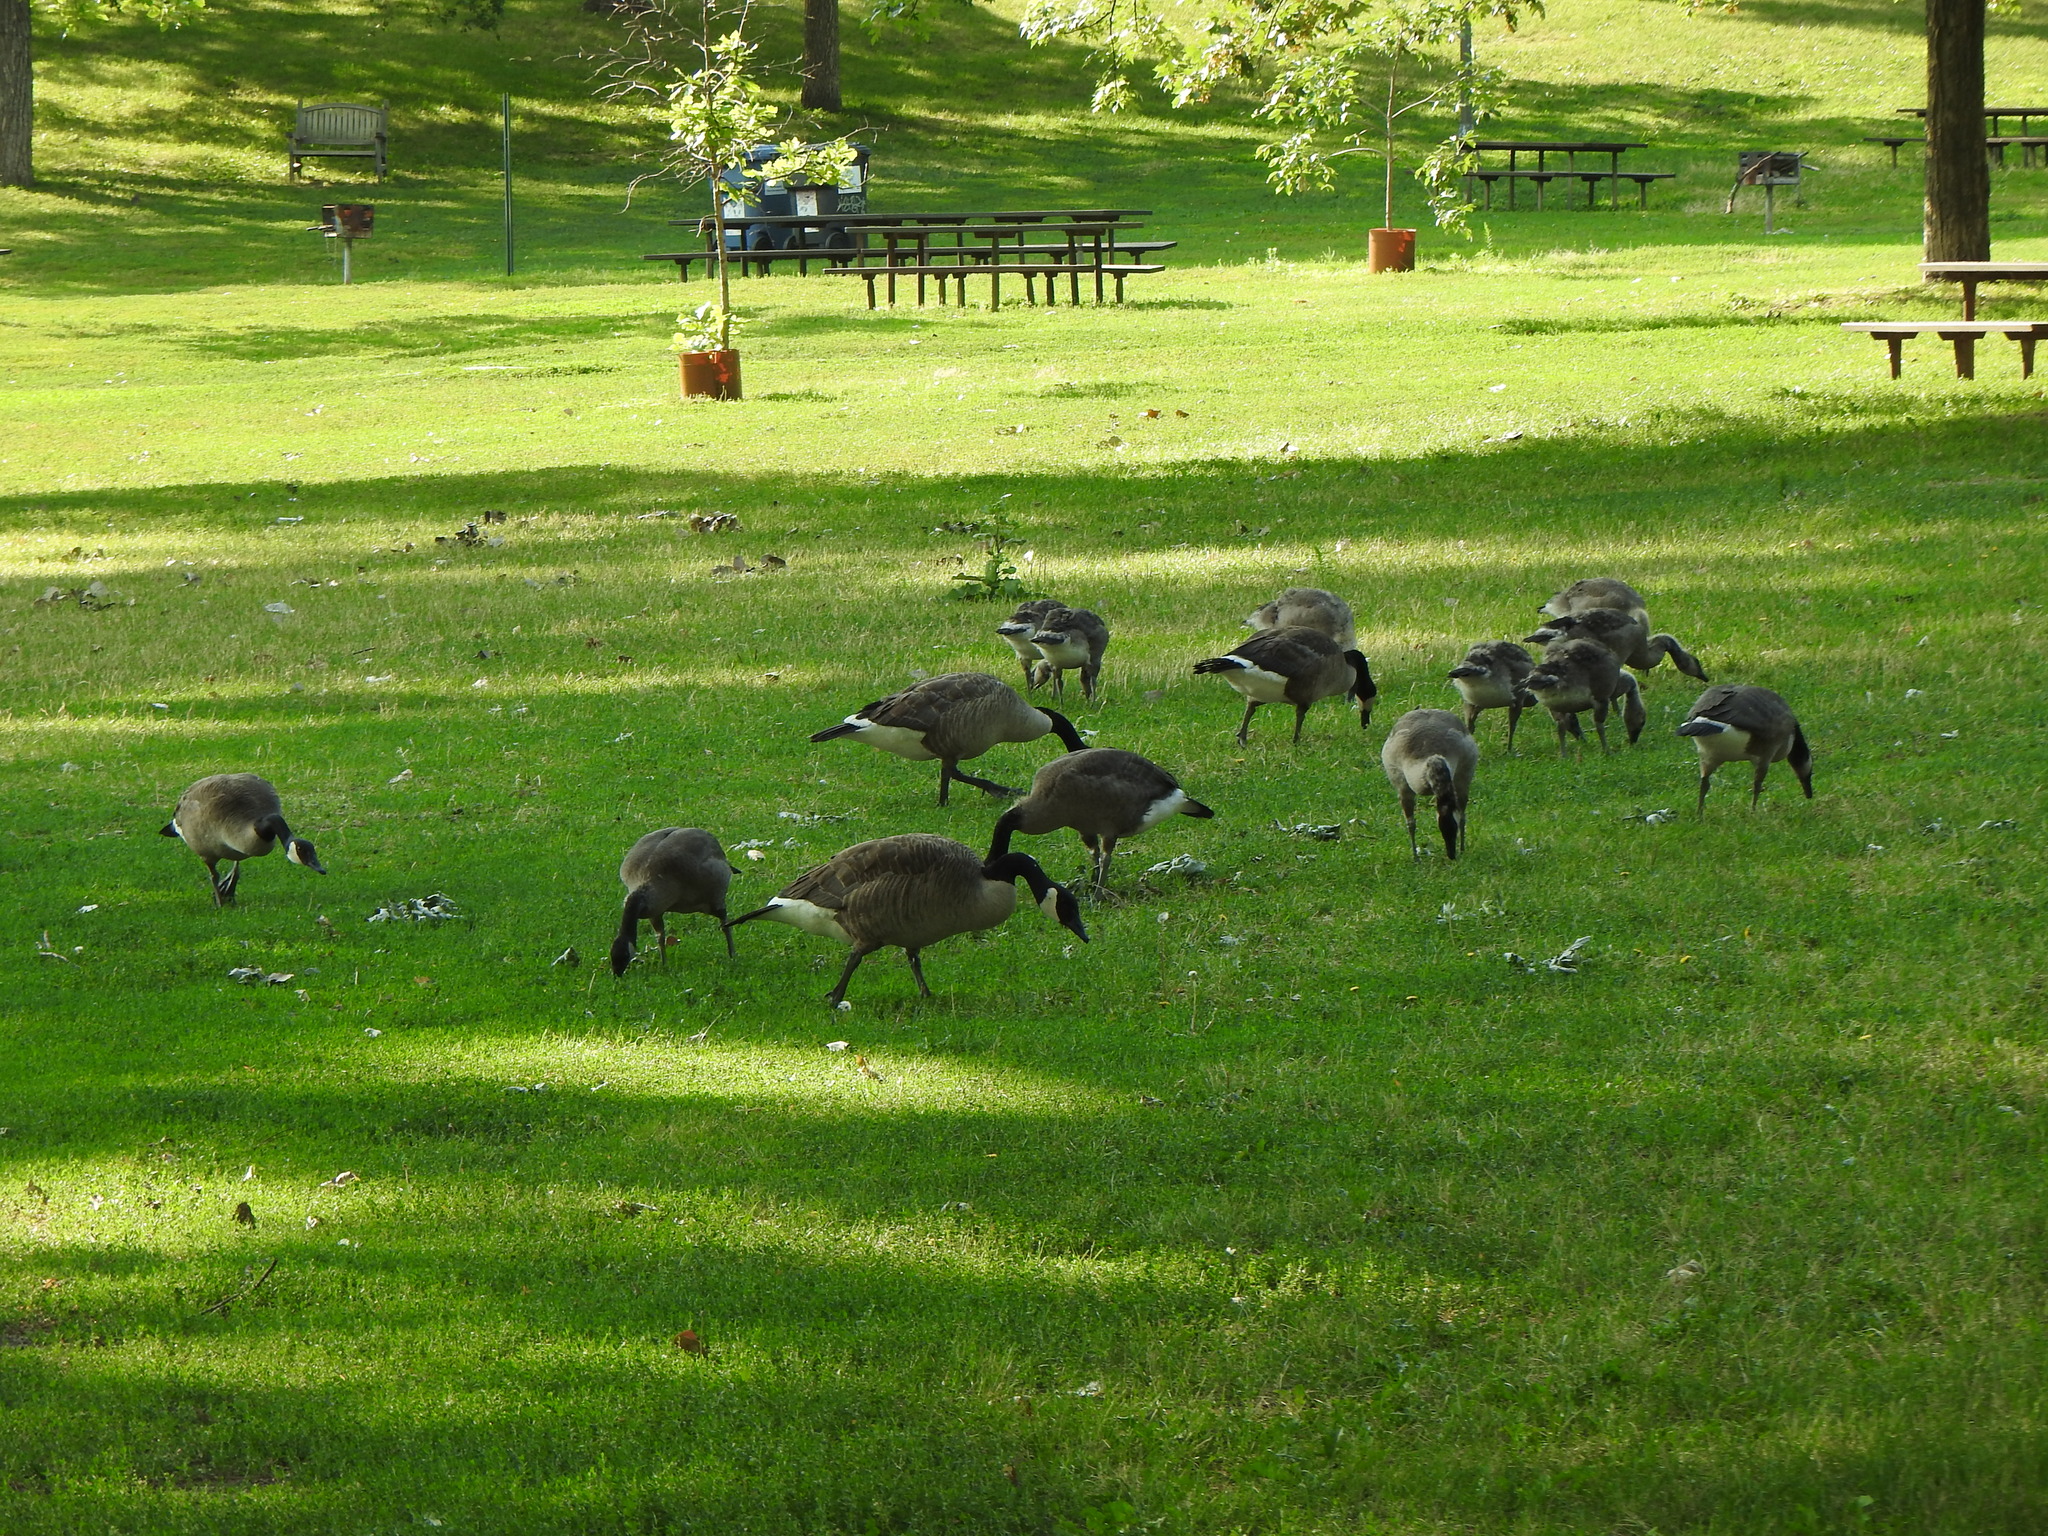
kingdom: Animalia
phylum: Chordata
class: Aves
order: Anseriformes
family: Anatidae
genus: Branta
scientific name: Branta canadensis
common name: Canada goose
